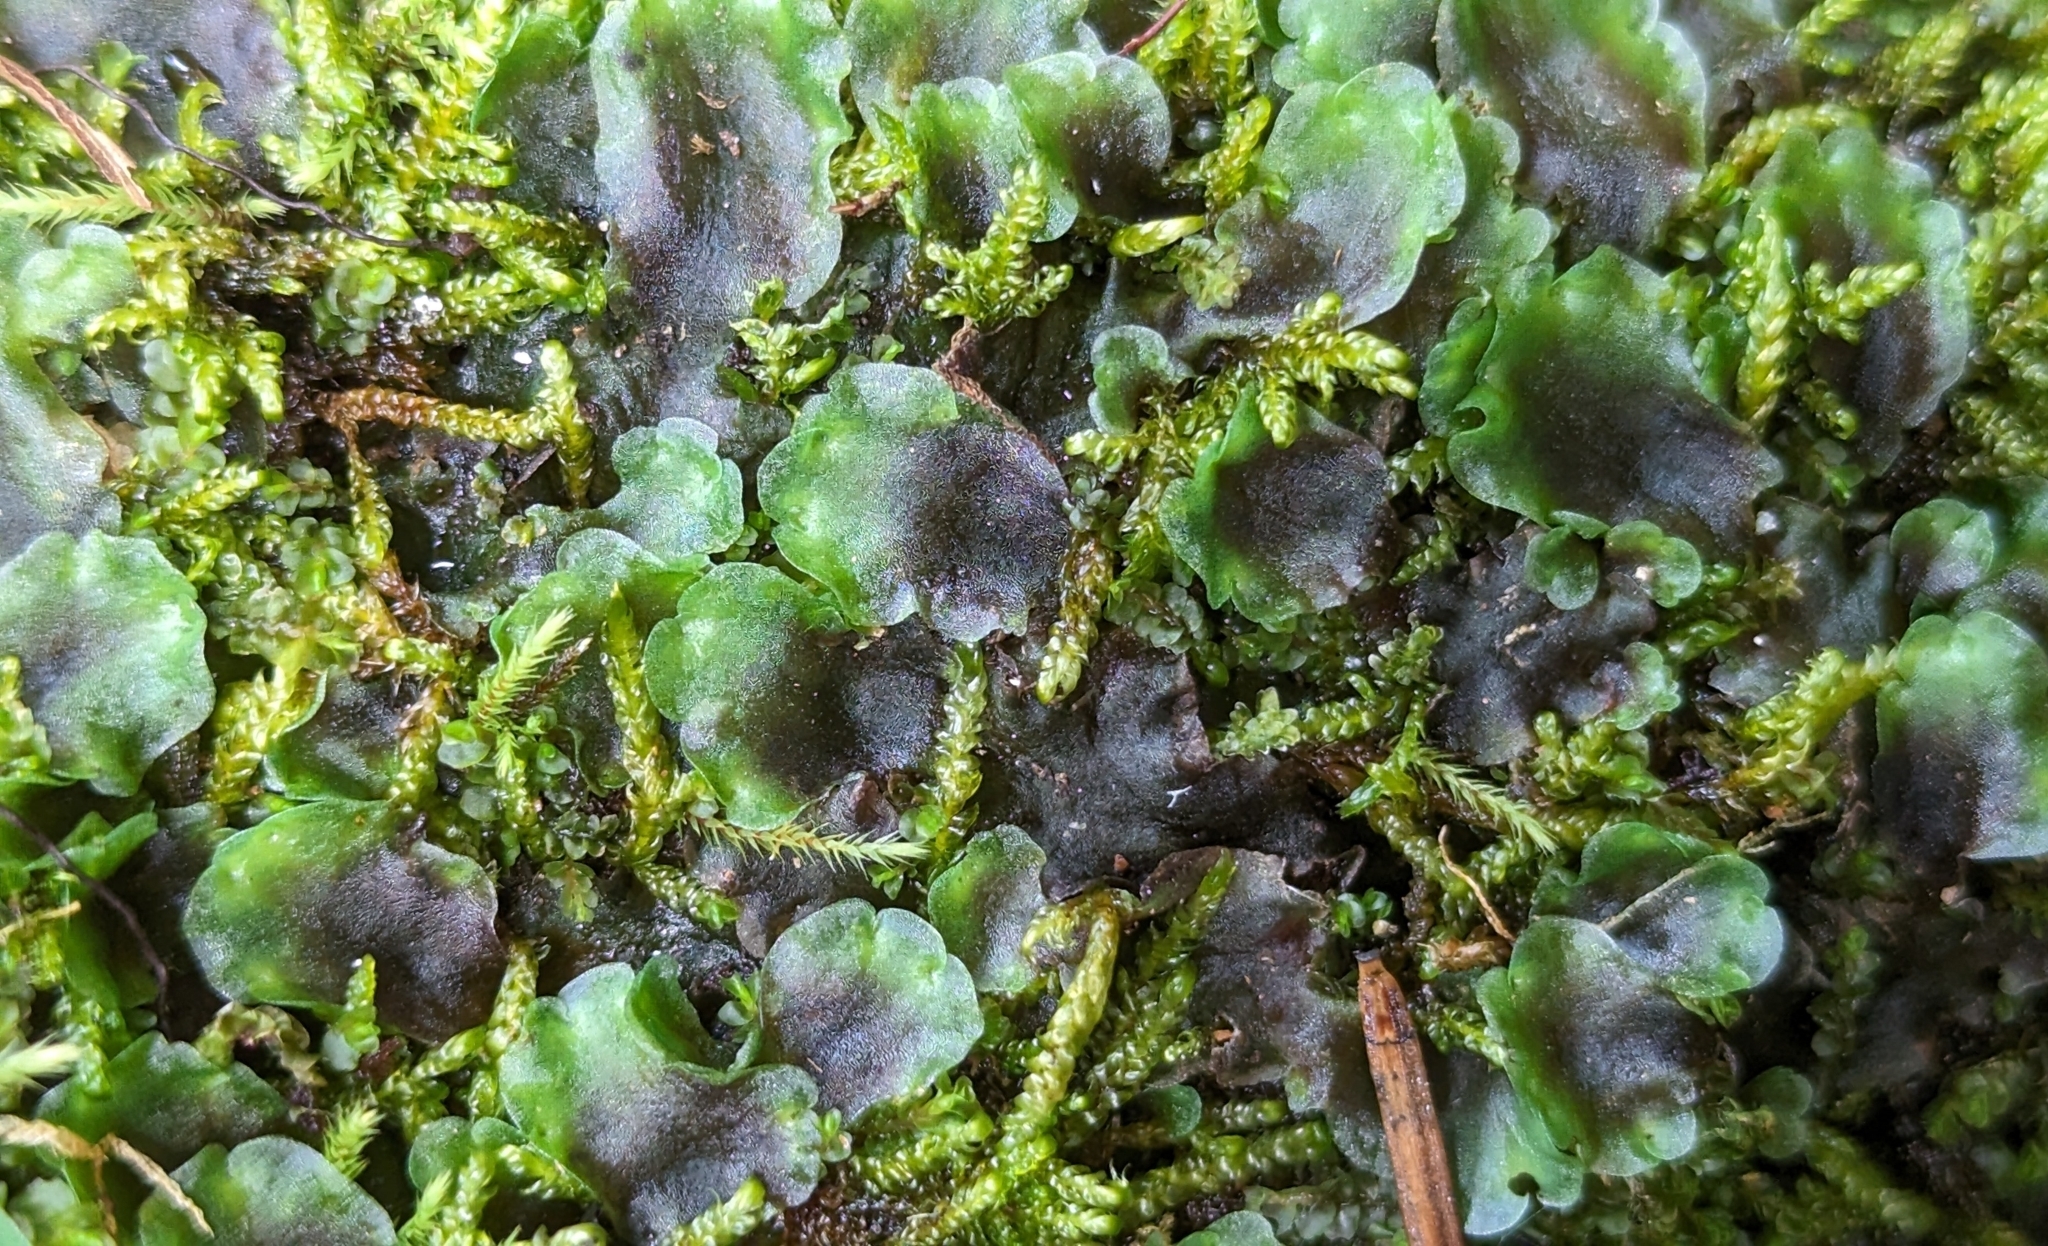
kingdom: Plantae
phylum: Marchantiophyta
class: Jungermanniopsida
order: Pelliales
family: Pelliaceae
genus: Pellia
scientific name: Pellia neesiana
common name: Nees  pellia
